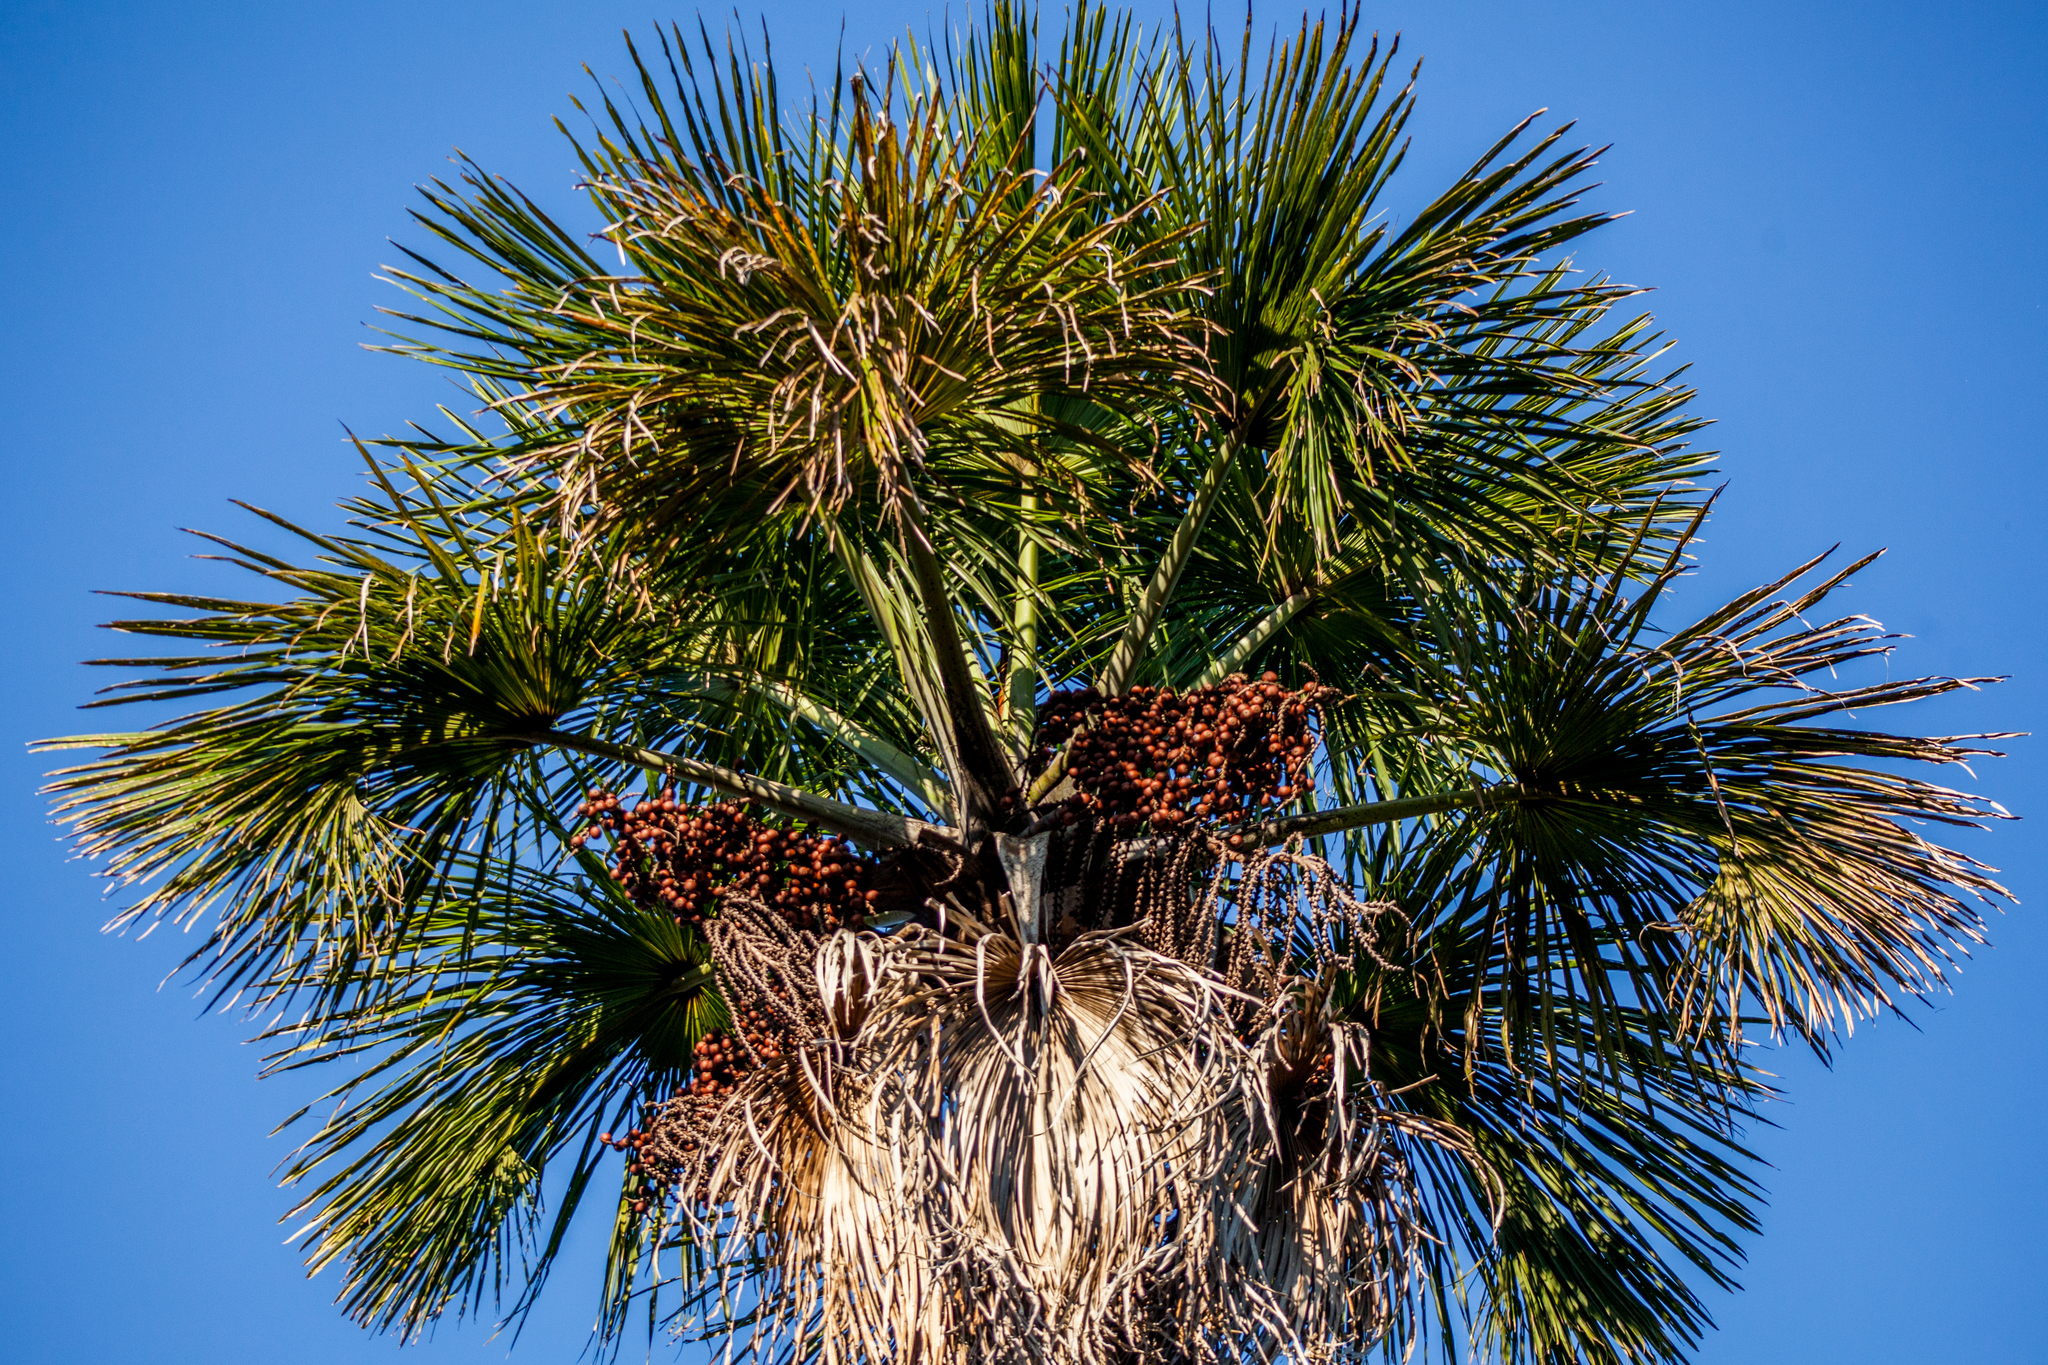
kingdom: Plantae
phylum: Tracheophyta
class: Liliopsida
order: Arecales
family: Arecaceae
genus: Mauritia
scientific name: Mauritia flexuosa
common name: Tree-of-life
